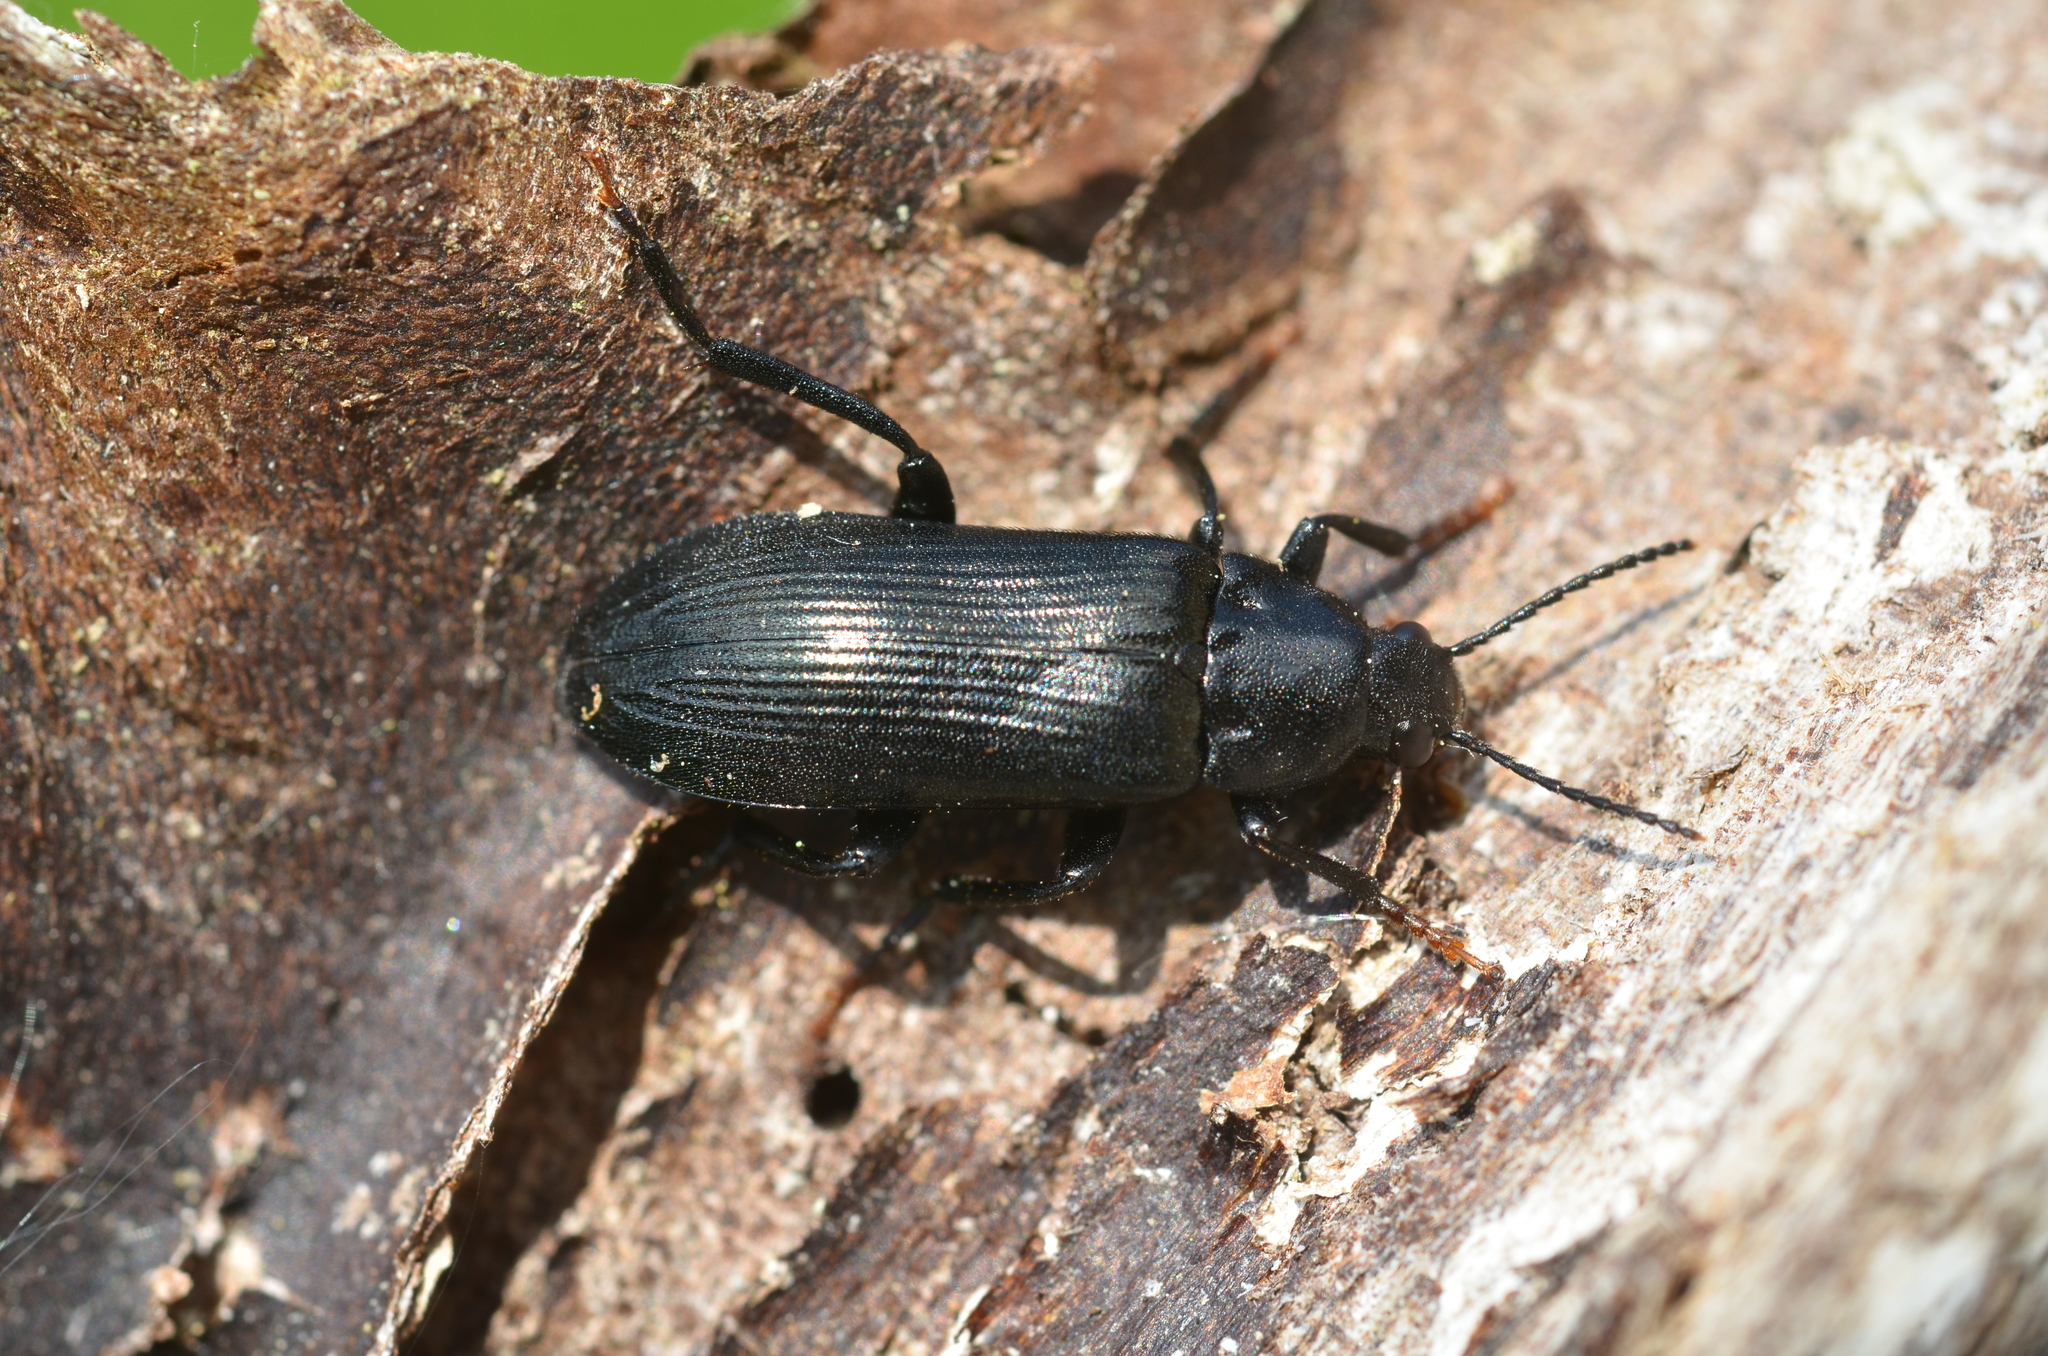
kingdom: Animalia
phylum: Arthropoda
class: Insecta
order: Coleoptera
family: Melandryidae
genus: Melandrya
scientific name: Melandrya caraboides
